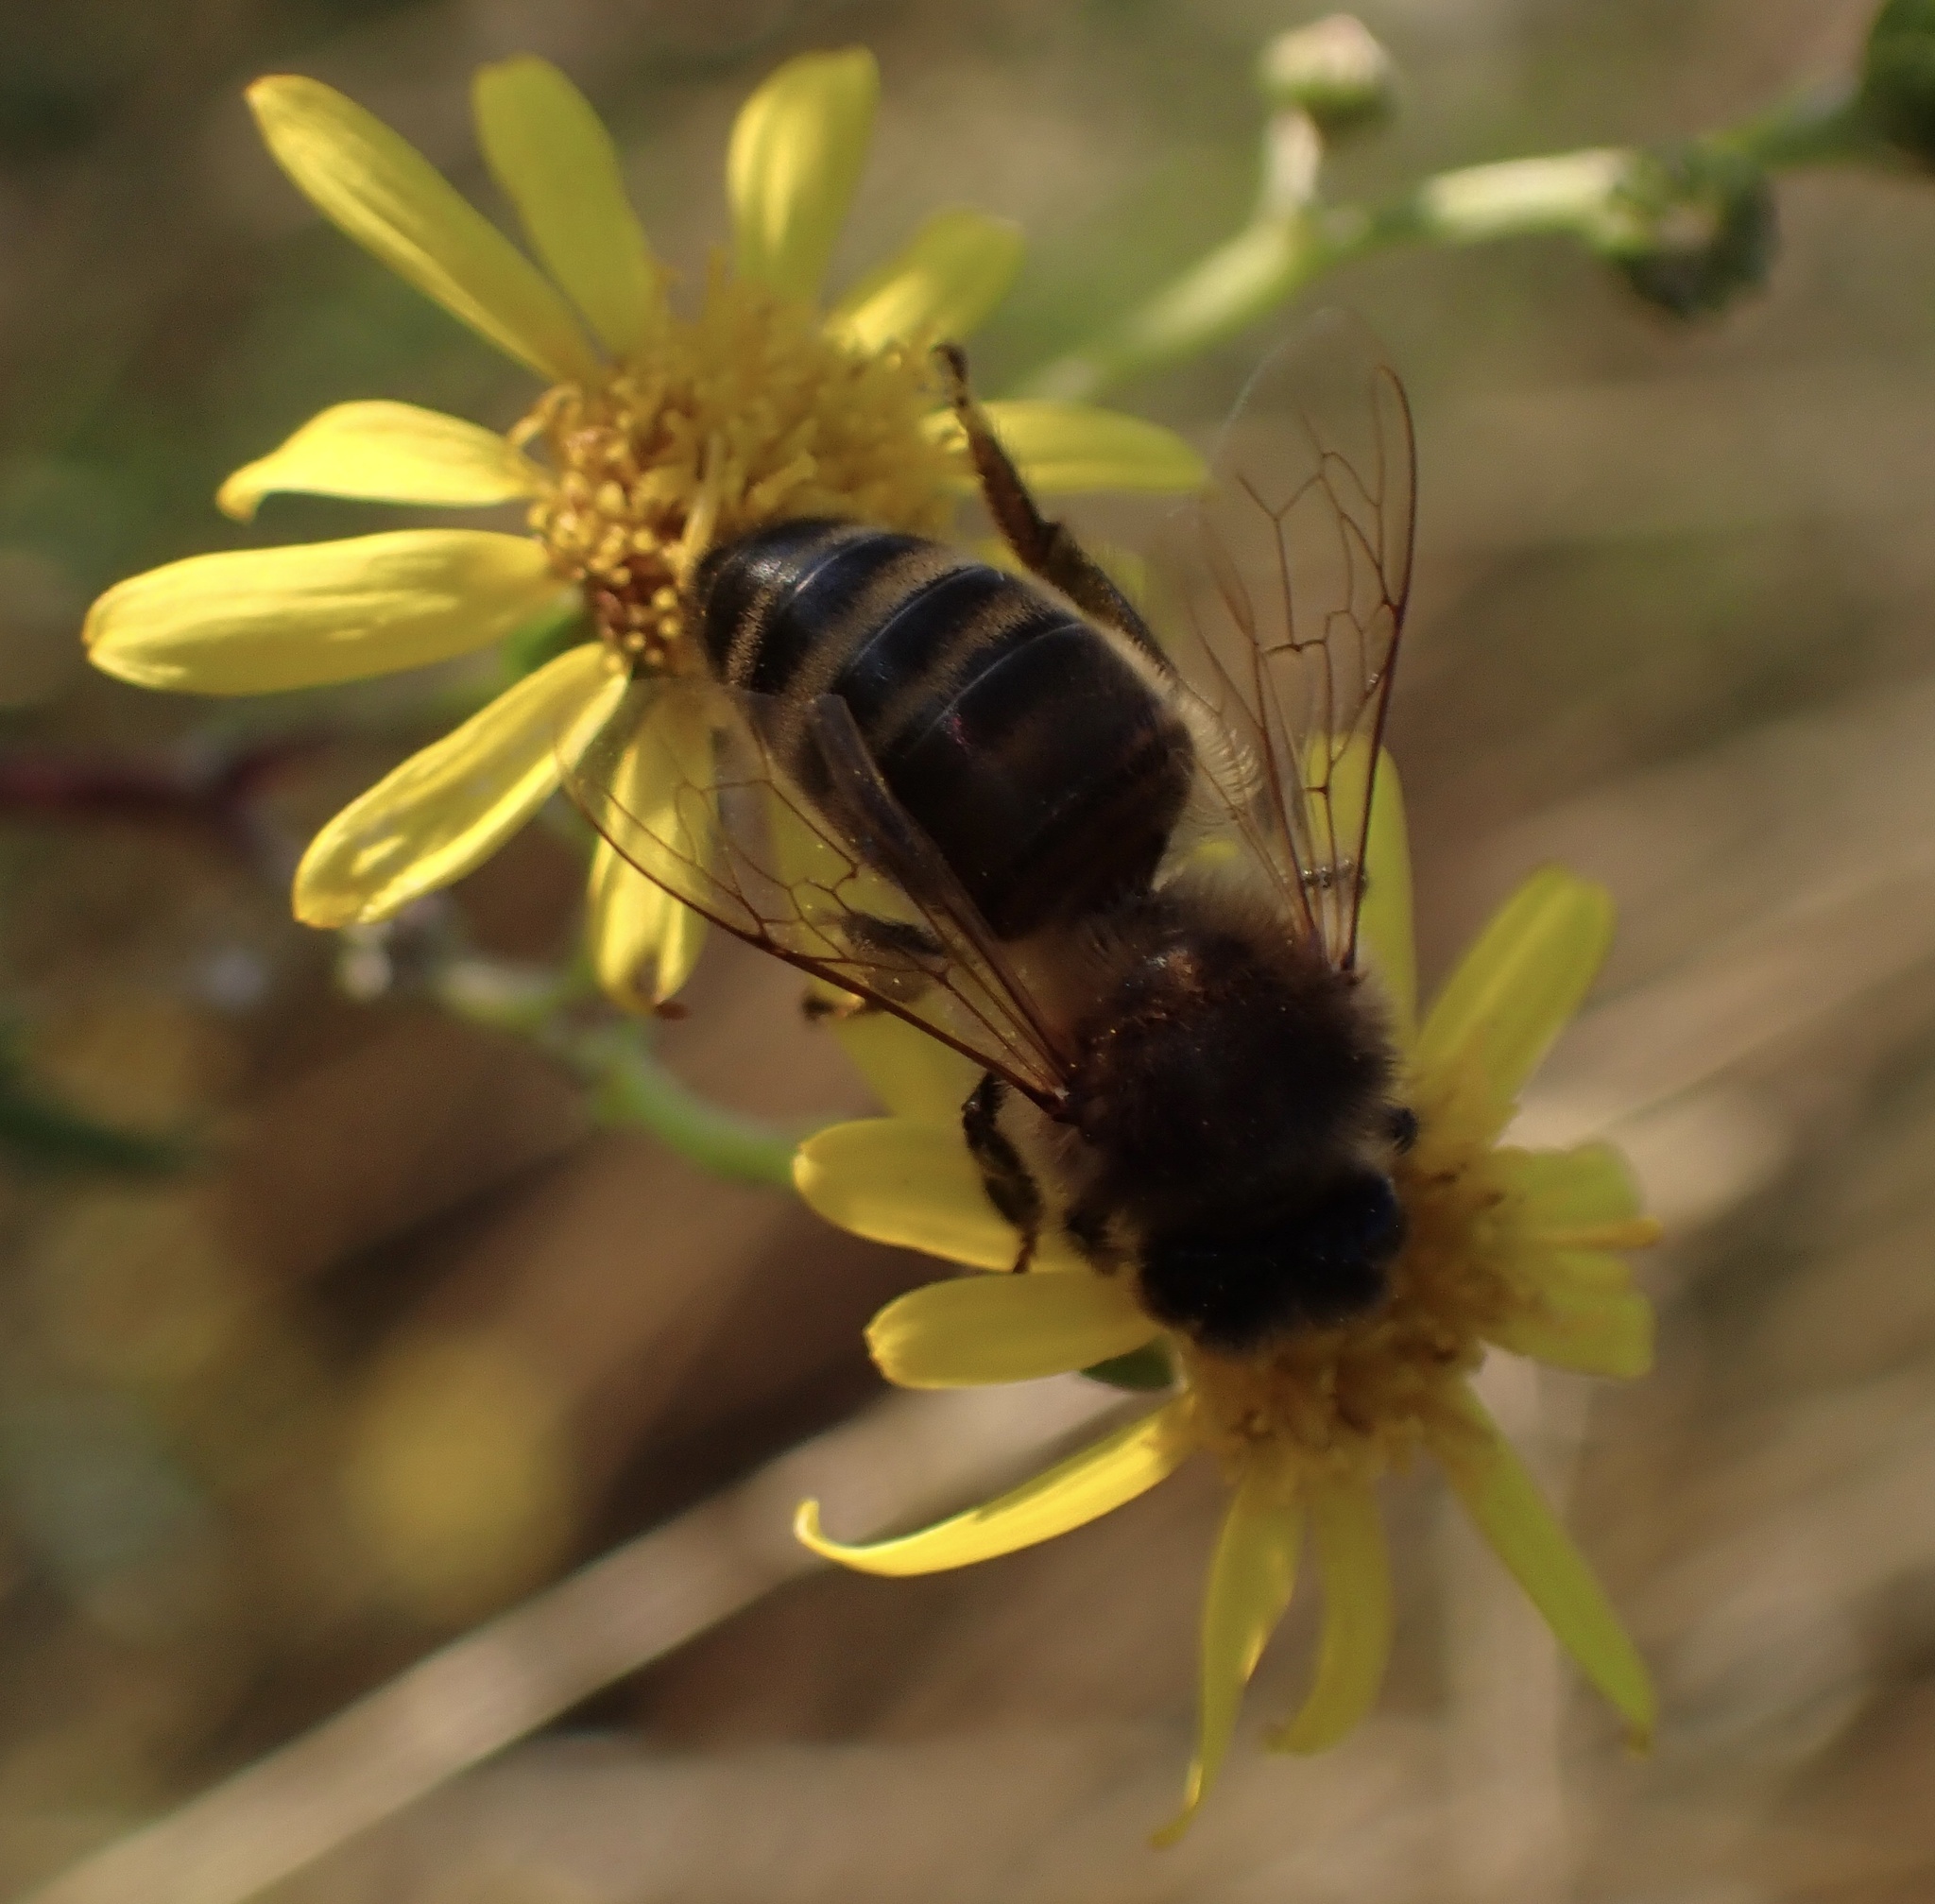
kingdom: Animalia
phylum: Arthropoda
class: Insecta
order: Hymenoptera
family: Apidae
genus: Apis
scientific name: Apis mellifera
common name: Honey bee
